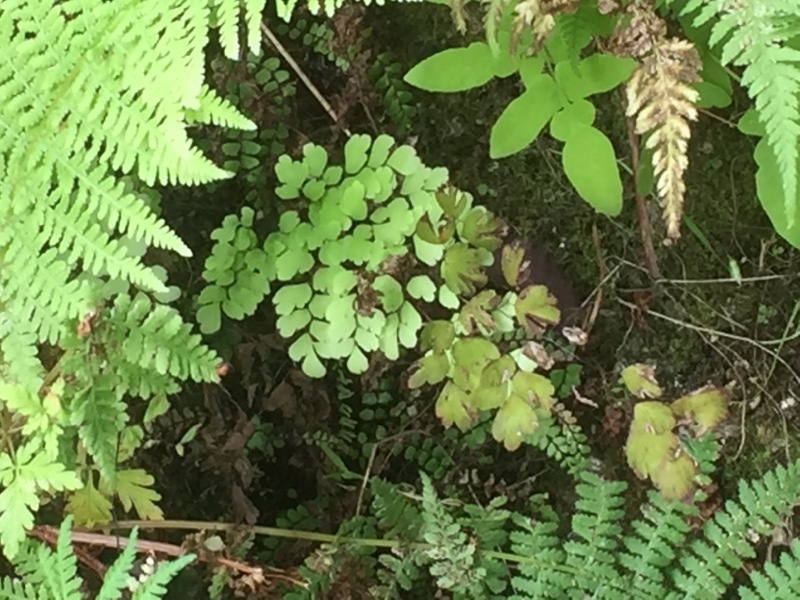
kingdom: Plantae
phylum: Tracheophyta
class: Polypodiopsida
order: Polypodiales
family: Pteridaceae
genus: Adiantum
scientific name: Adiantum capillus-veneris
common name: Maidenhair fern
